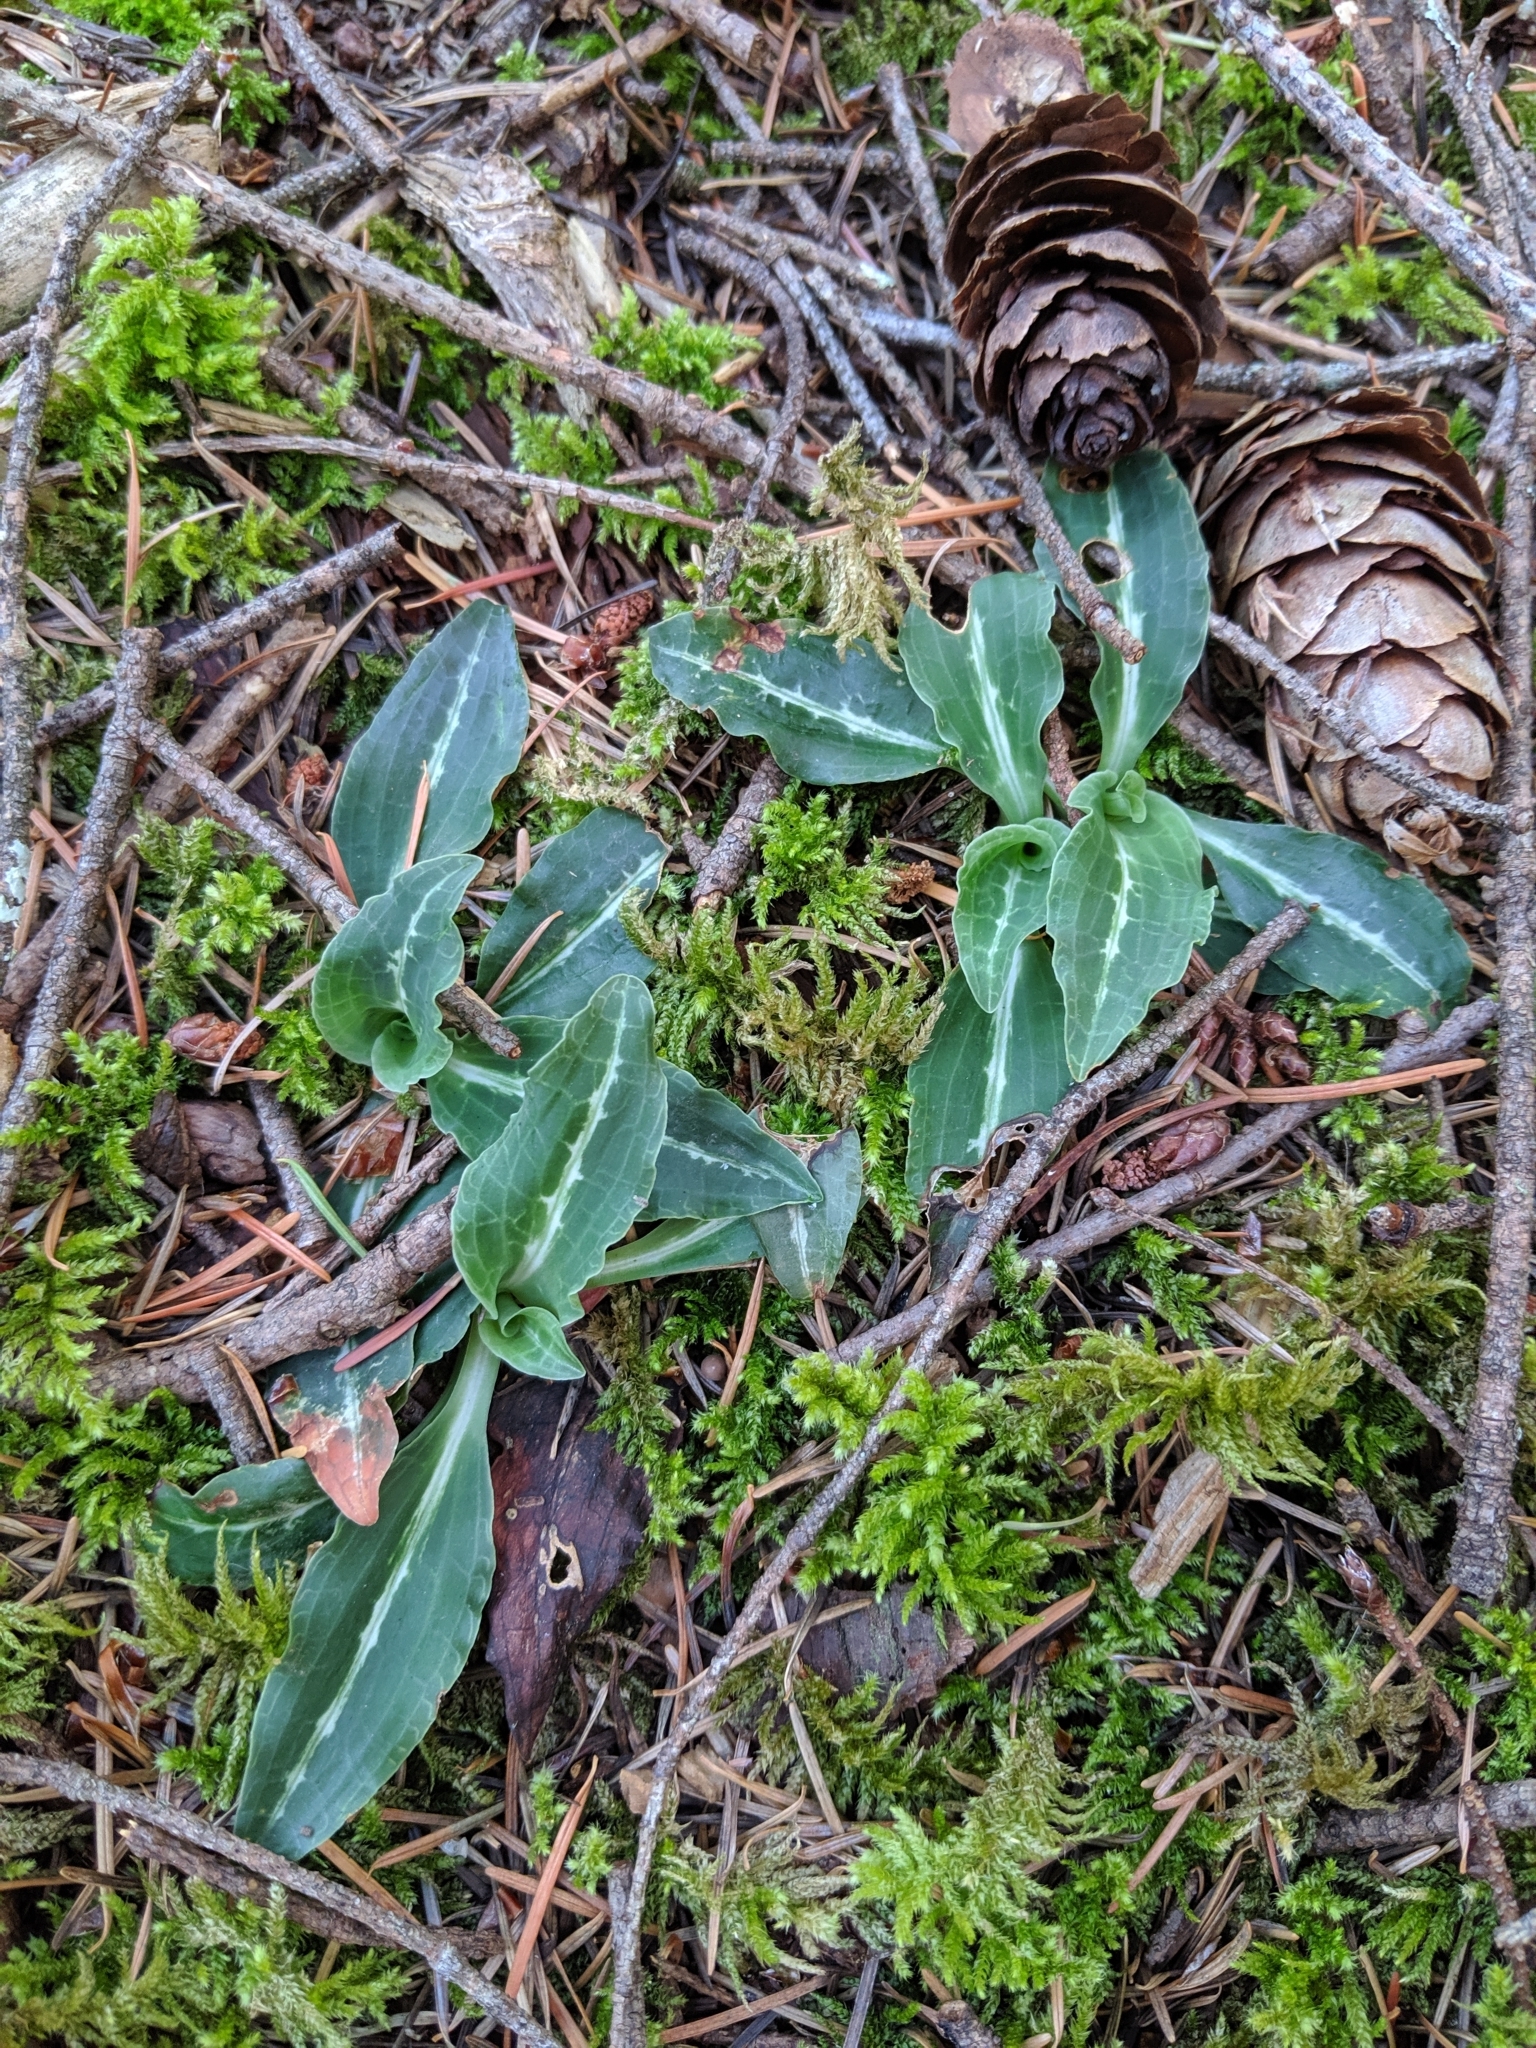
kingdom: Plantae
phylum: Tracheophyta
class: Liliopsida
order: Asparagales
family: Orchidaceae
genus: Goodyera
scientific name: Goodyera oblongifolia
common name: Giant rattlesnake-plantain
